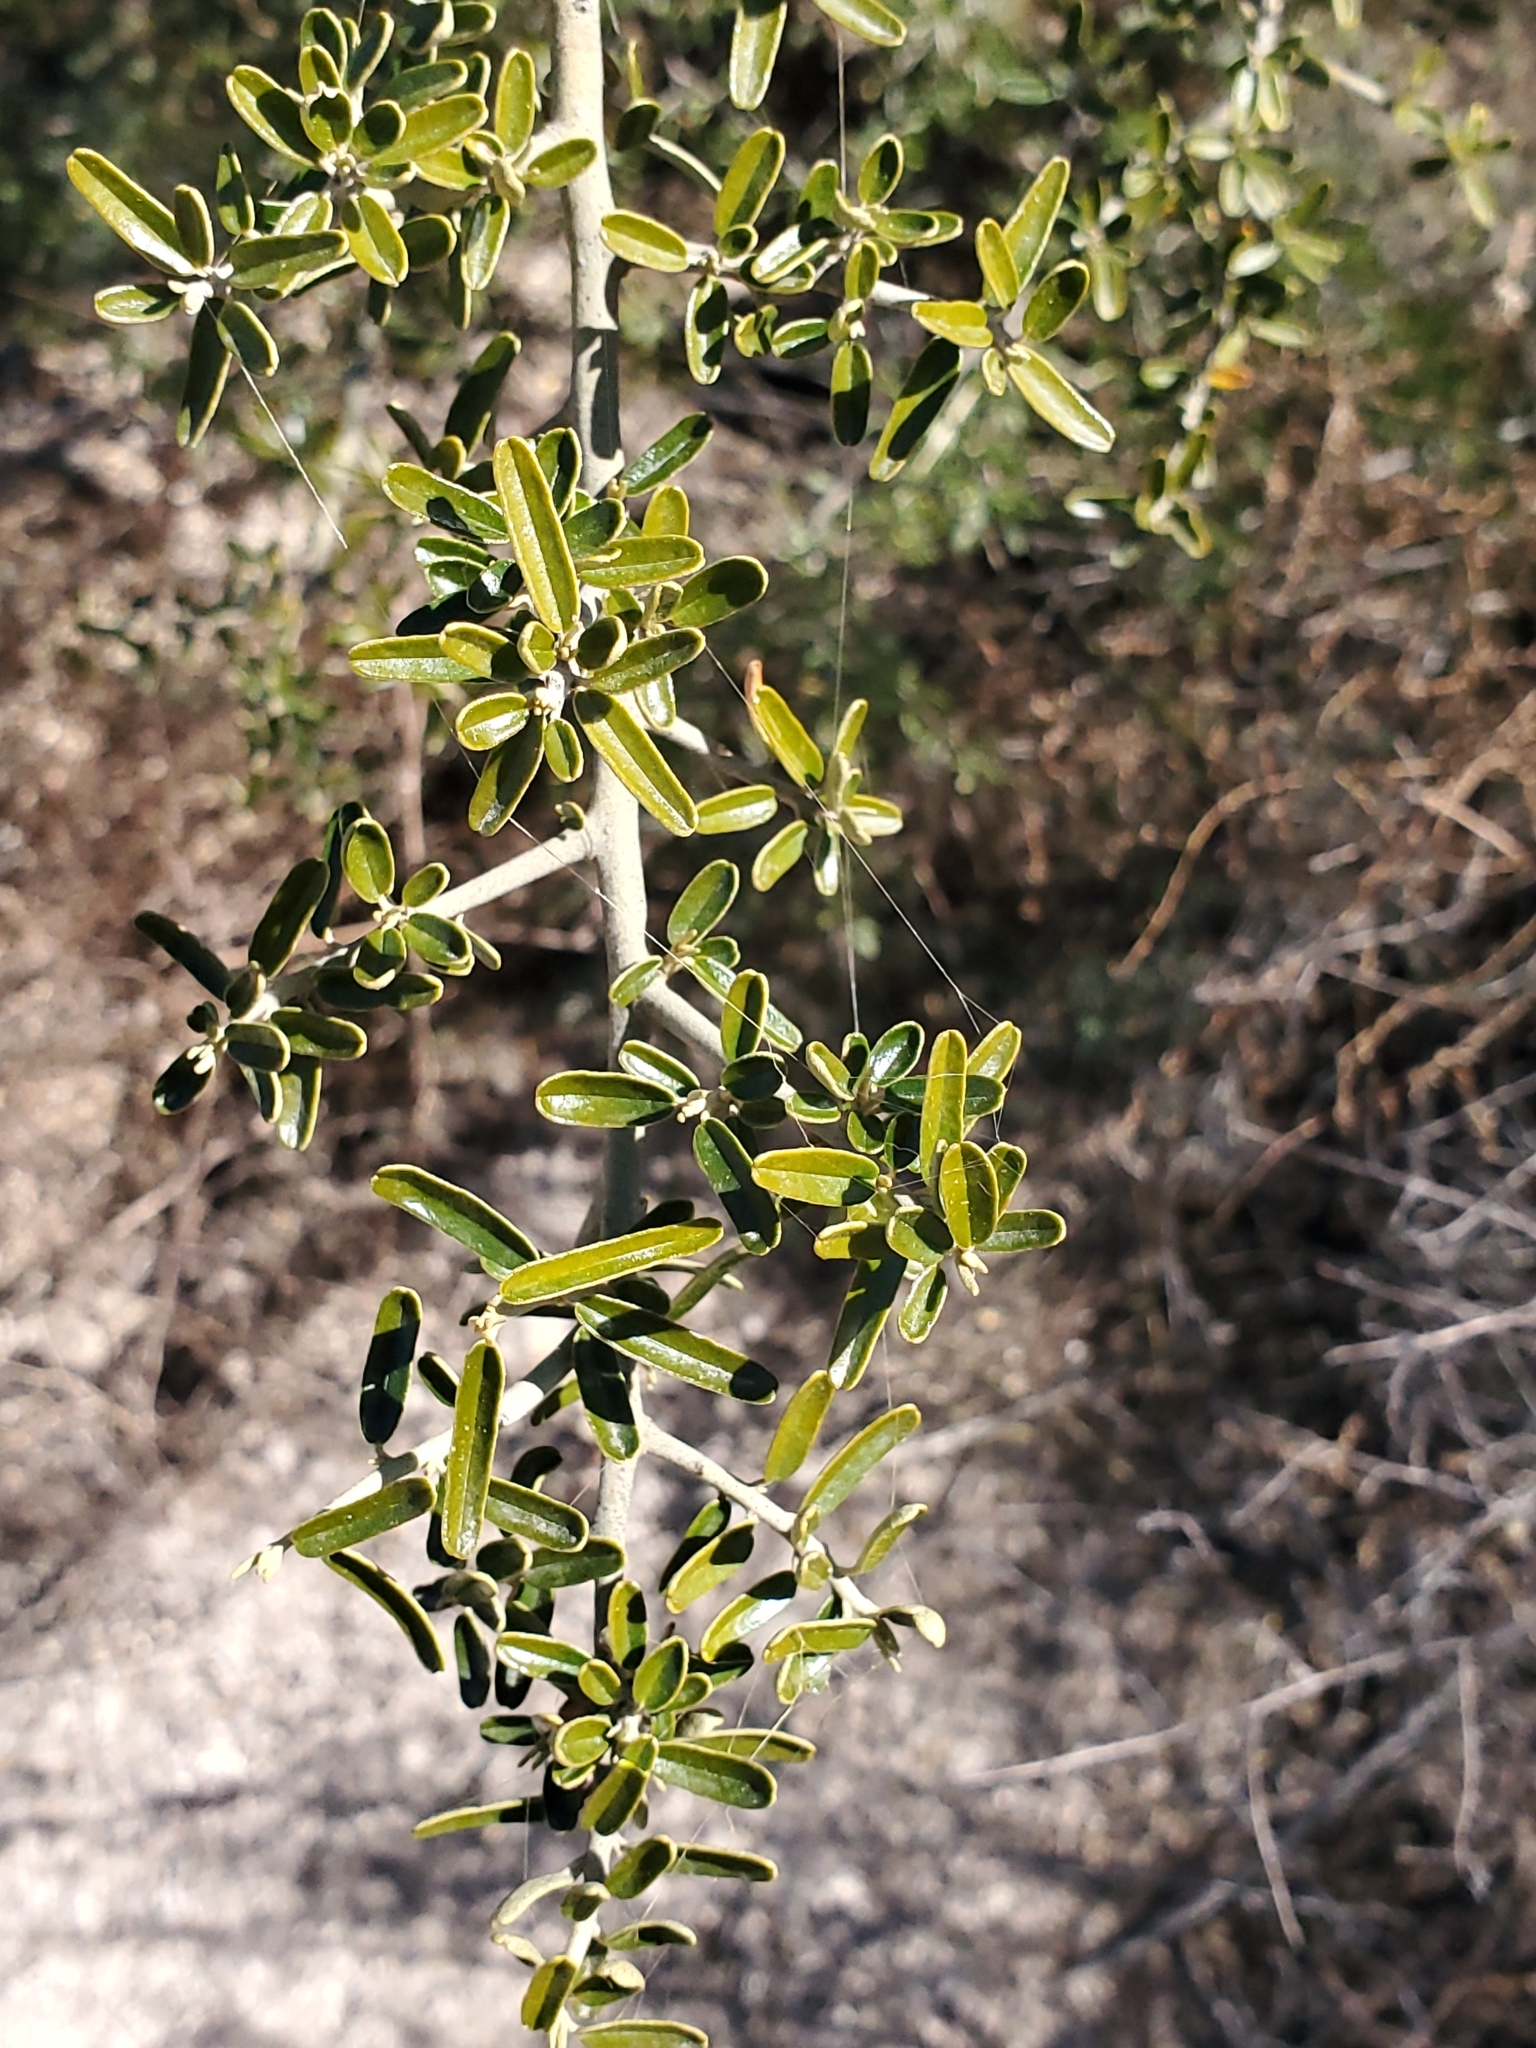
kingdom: Plantae
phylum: Tracheophyta
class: Magnoliopsida
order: Brassicales
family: Capparaceae
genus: Atamisquea
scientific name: Atamisquea emarginata
